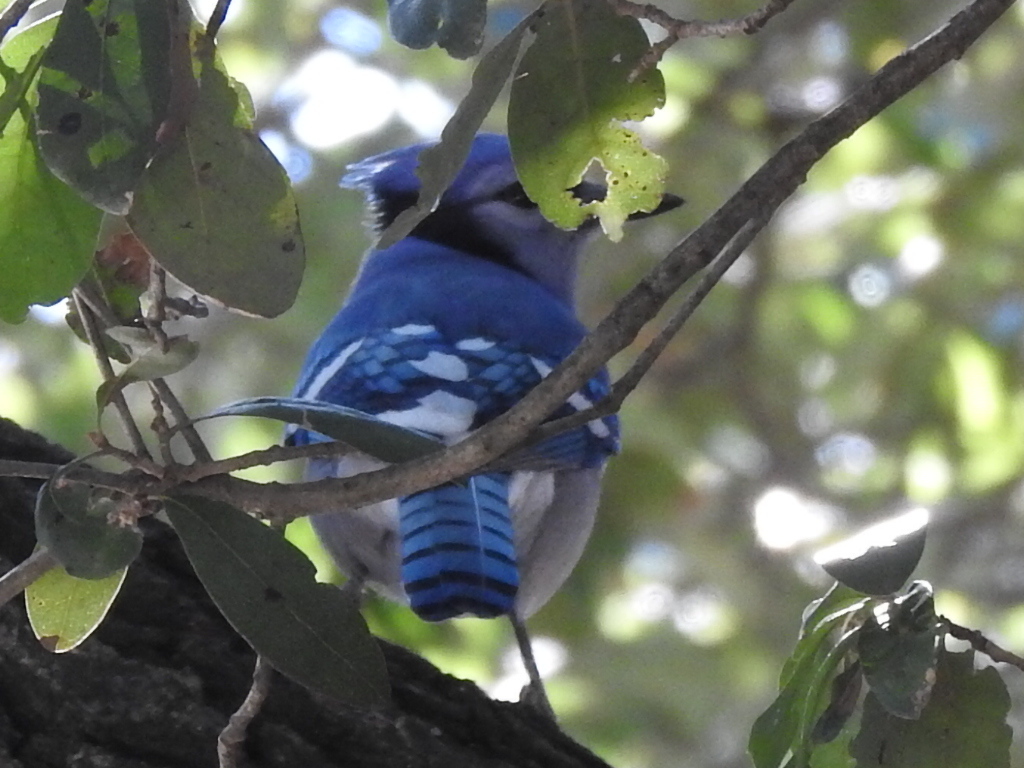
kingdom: Animalia
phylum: Chordata
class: Aves
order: Passeriformes
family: Corvidae
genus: Cyanocitta
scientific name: Cyanocitta cristata
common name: Blue jay
